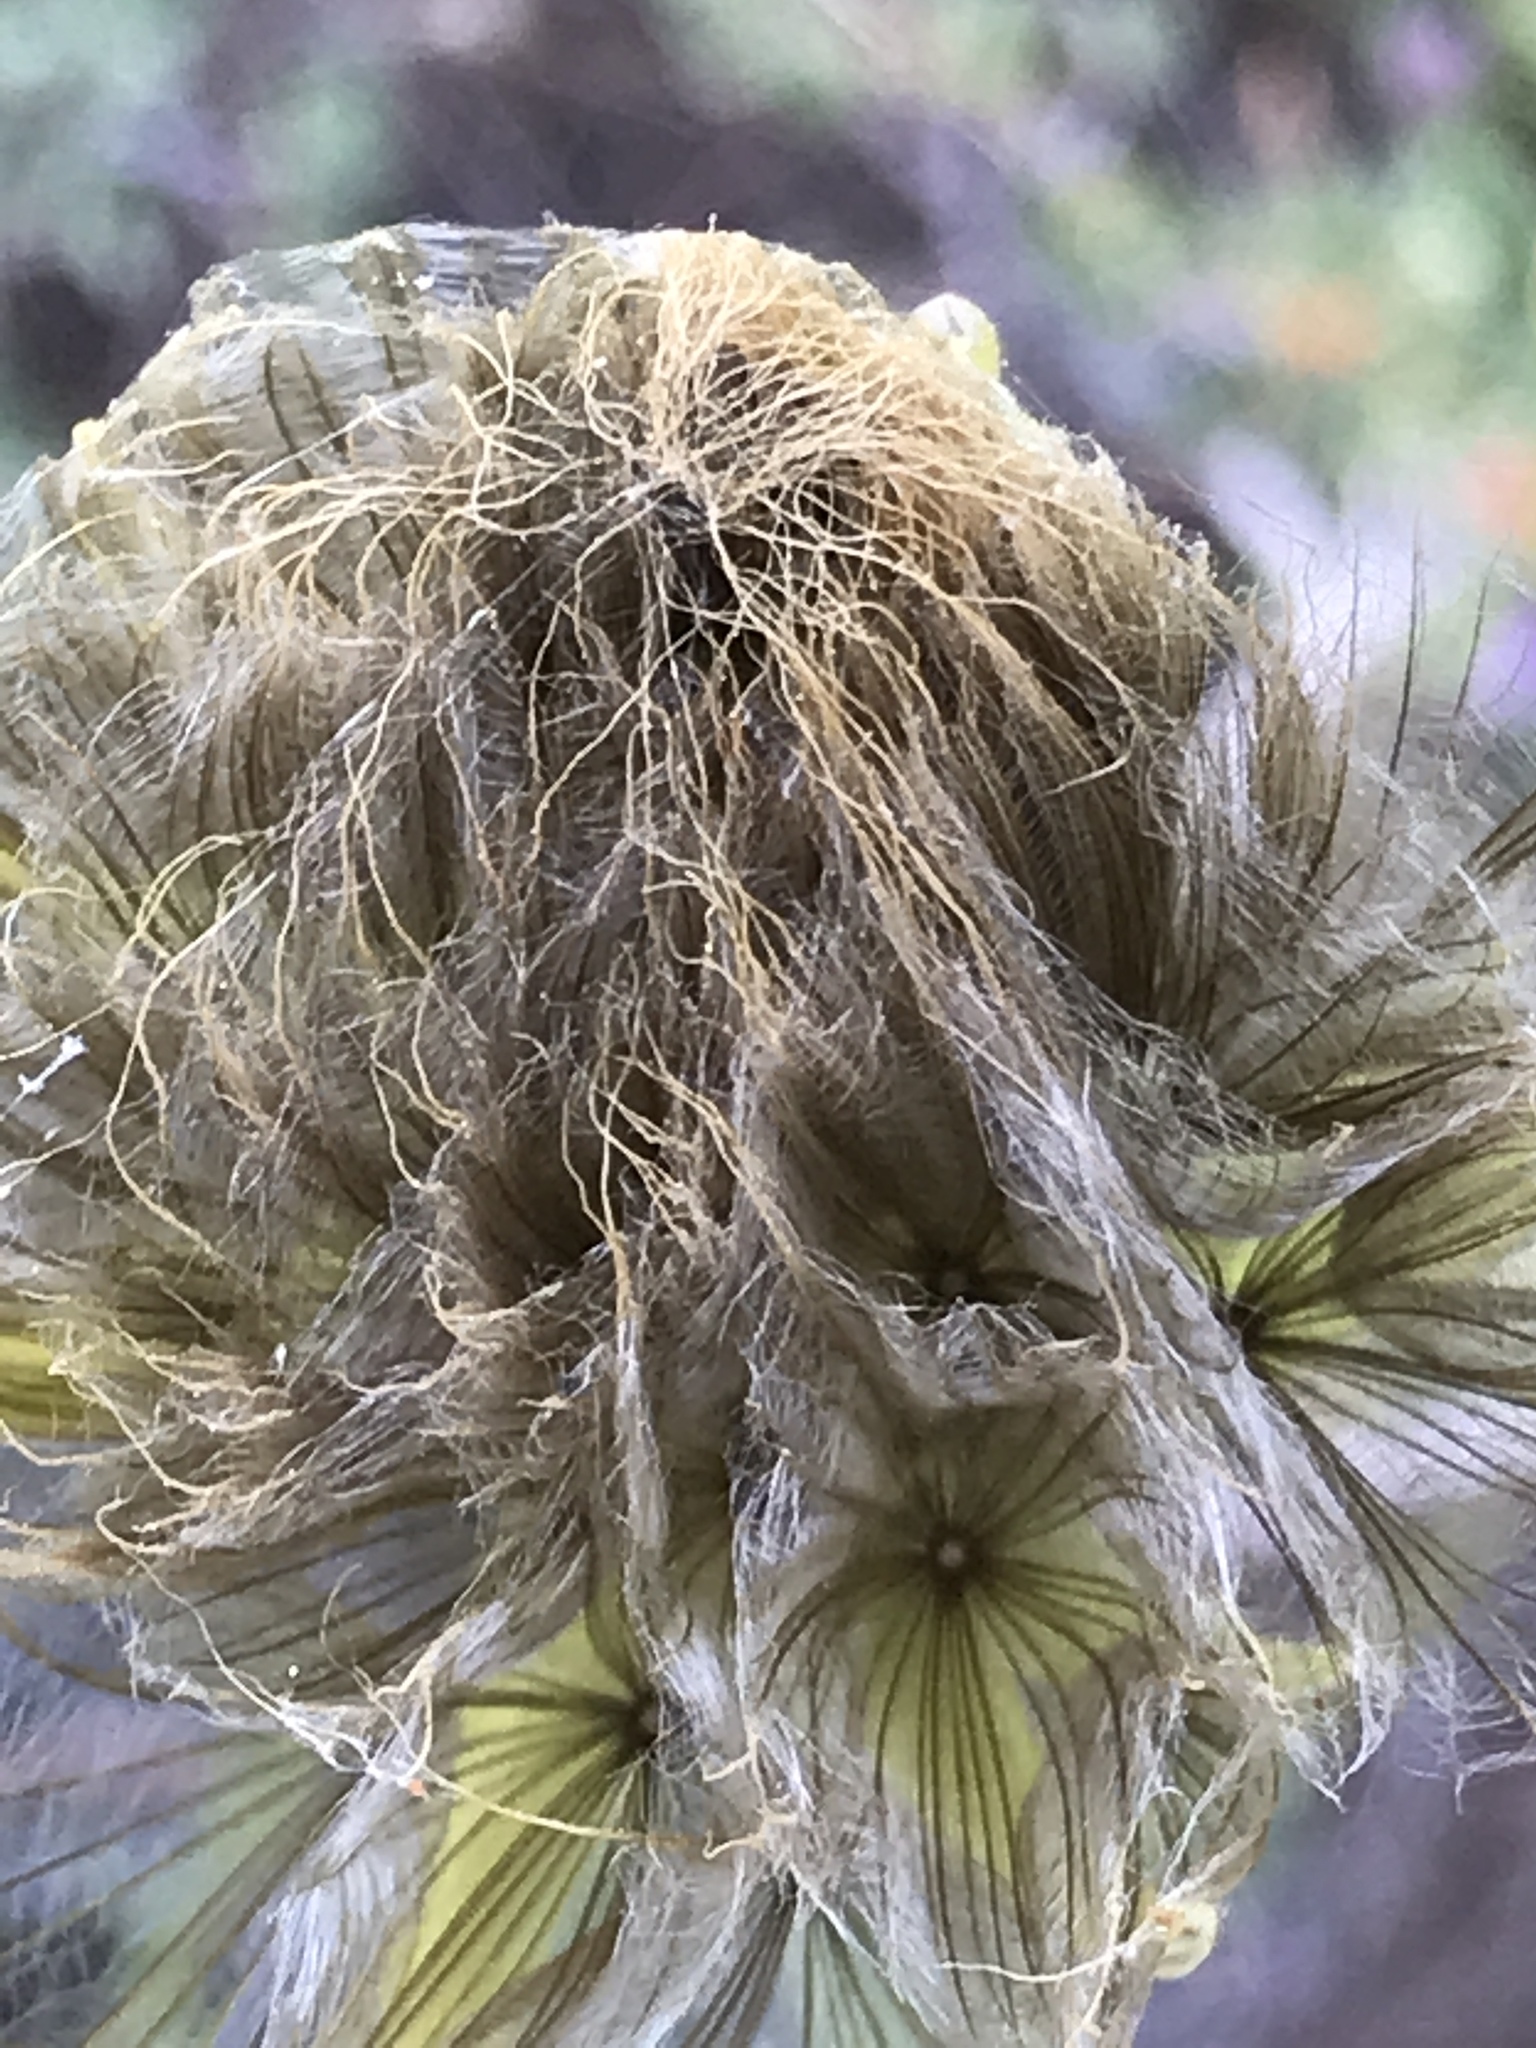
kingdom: Plantae
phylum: Tracheophyta
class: Magnoliopsida
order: Asterales
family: Asteraceae
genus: Tragopogon
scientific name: Tragopogon dubius
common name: Yellow salsify
